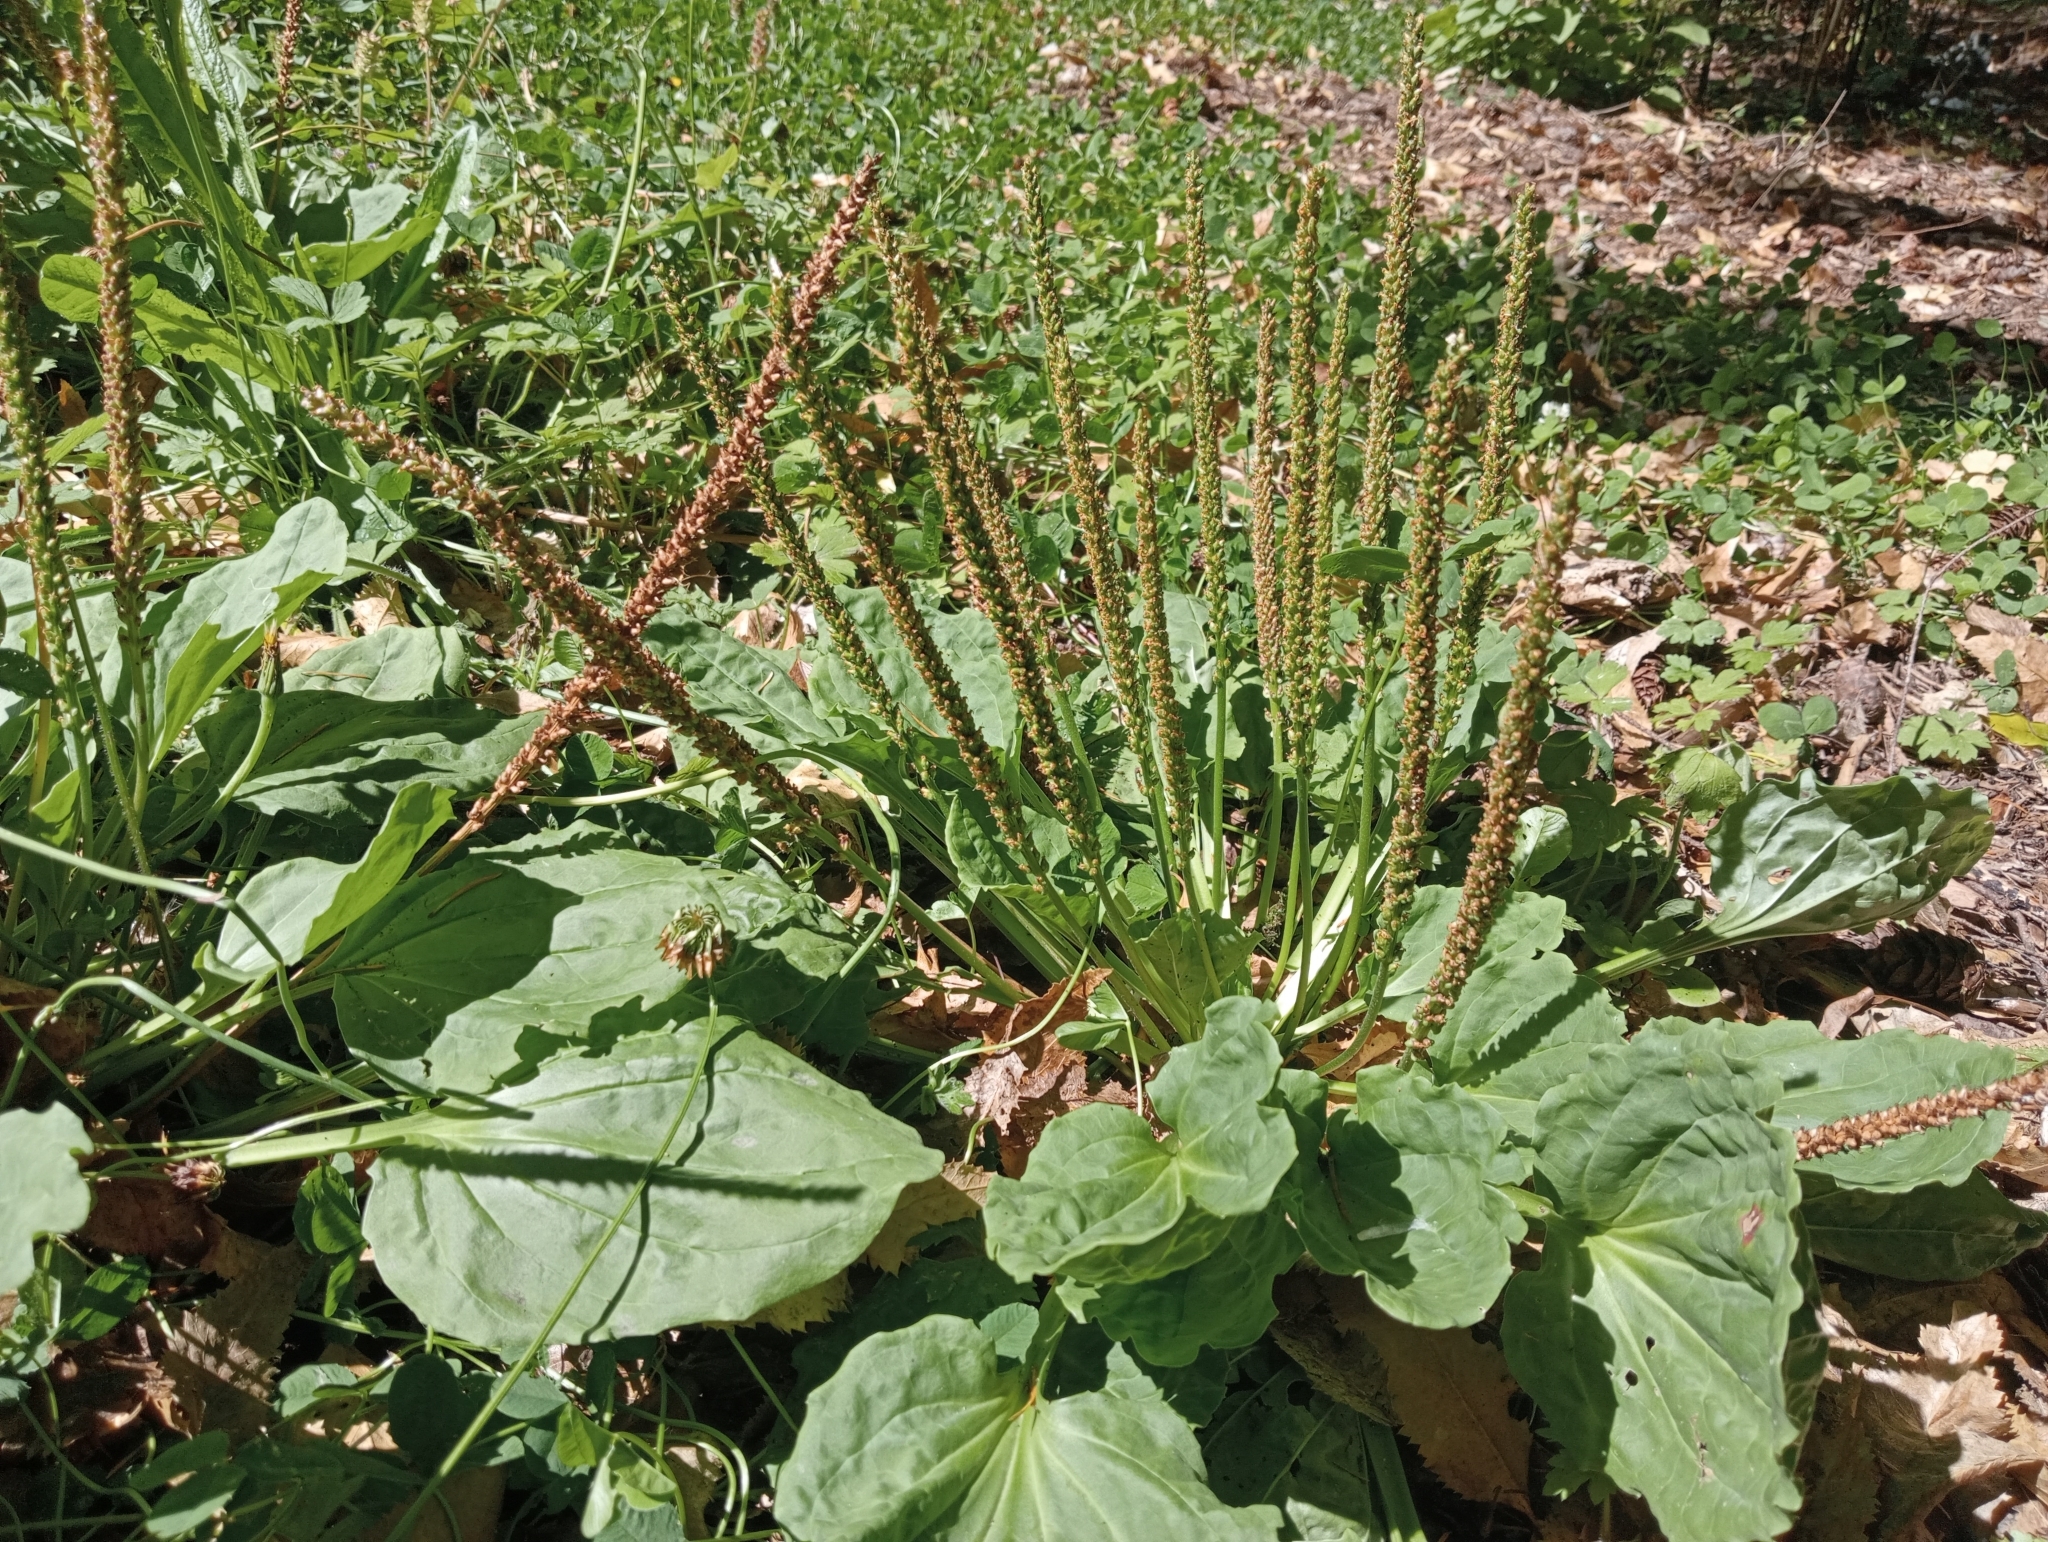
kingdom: Plantae
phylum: Tracheophyta
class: Magnoliopsida
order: Lamiales
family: Plantaginaceae
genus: Plantago
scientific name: Plantago major
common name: Common plantain
